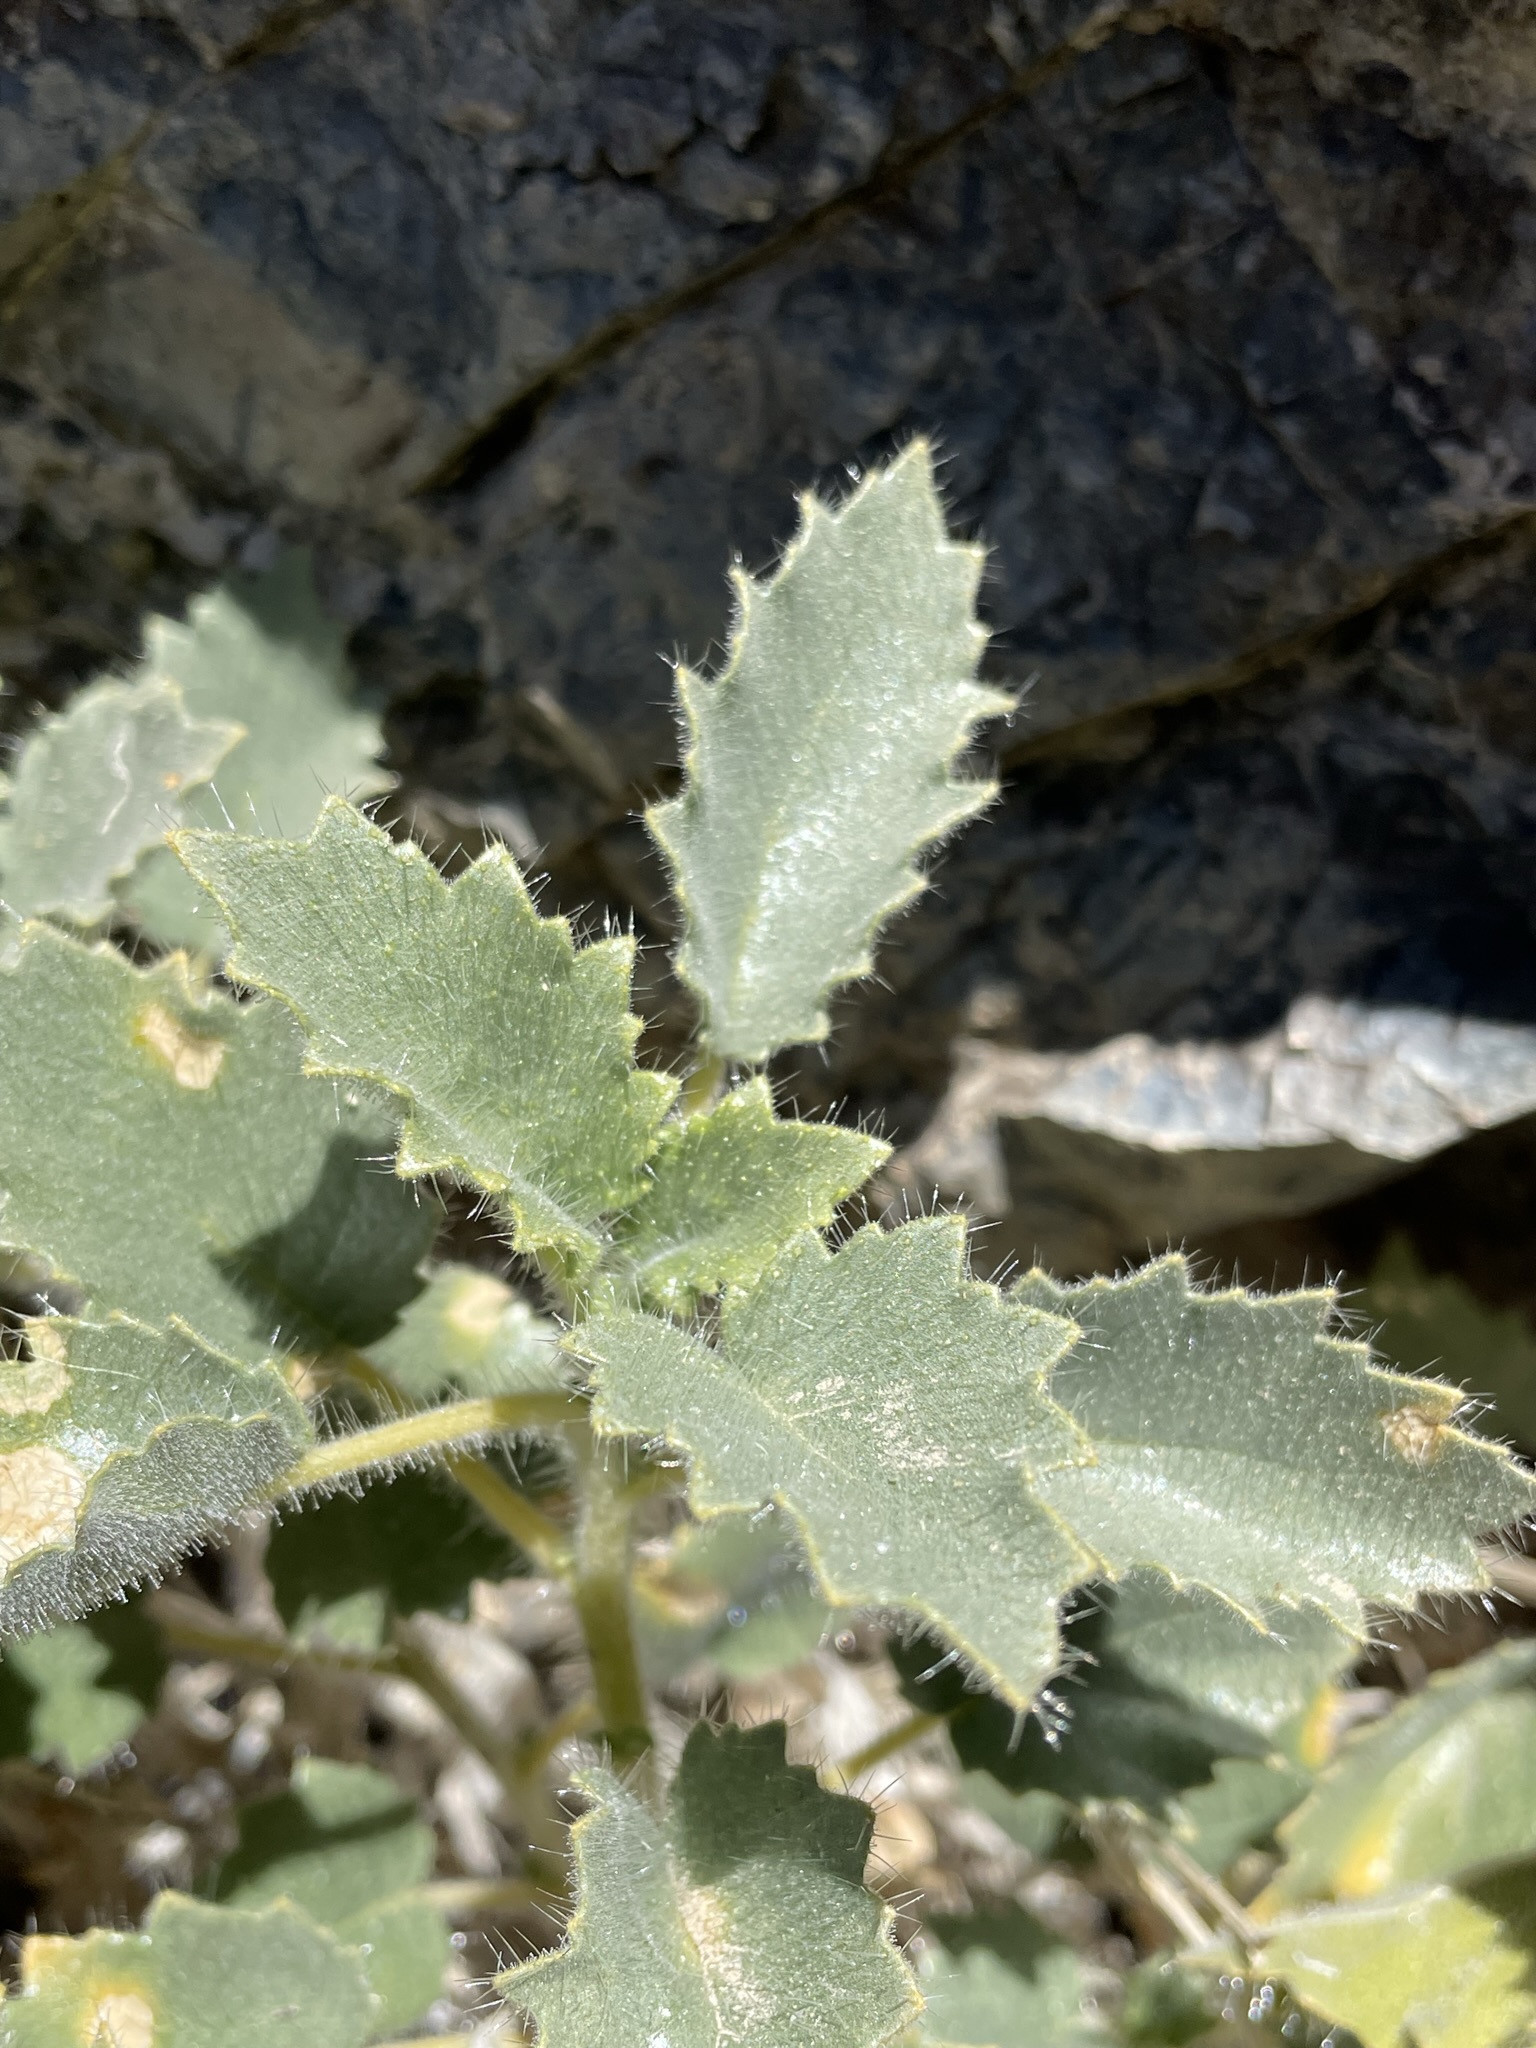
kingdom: Plantae
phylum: Tracheophyta
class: Magnoliopsida
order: Cornales
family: Loasaceae
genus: Eucnide
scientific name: Eucnide urens
